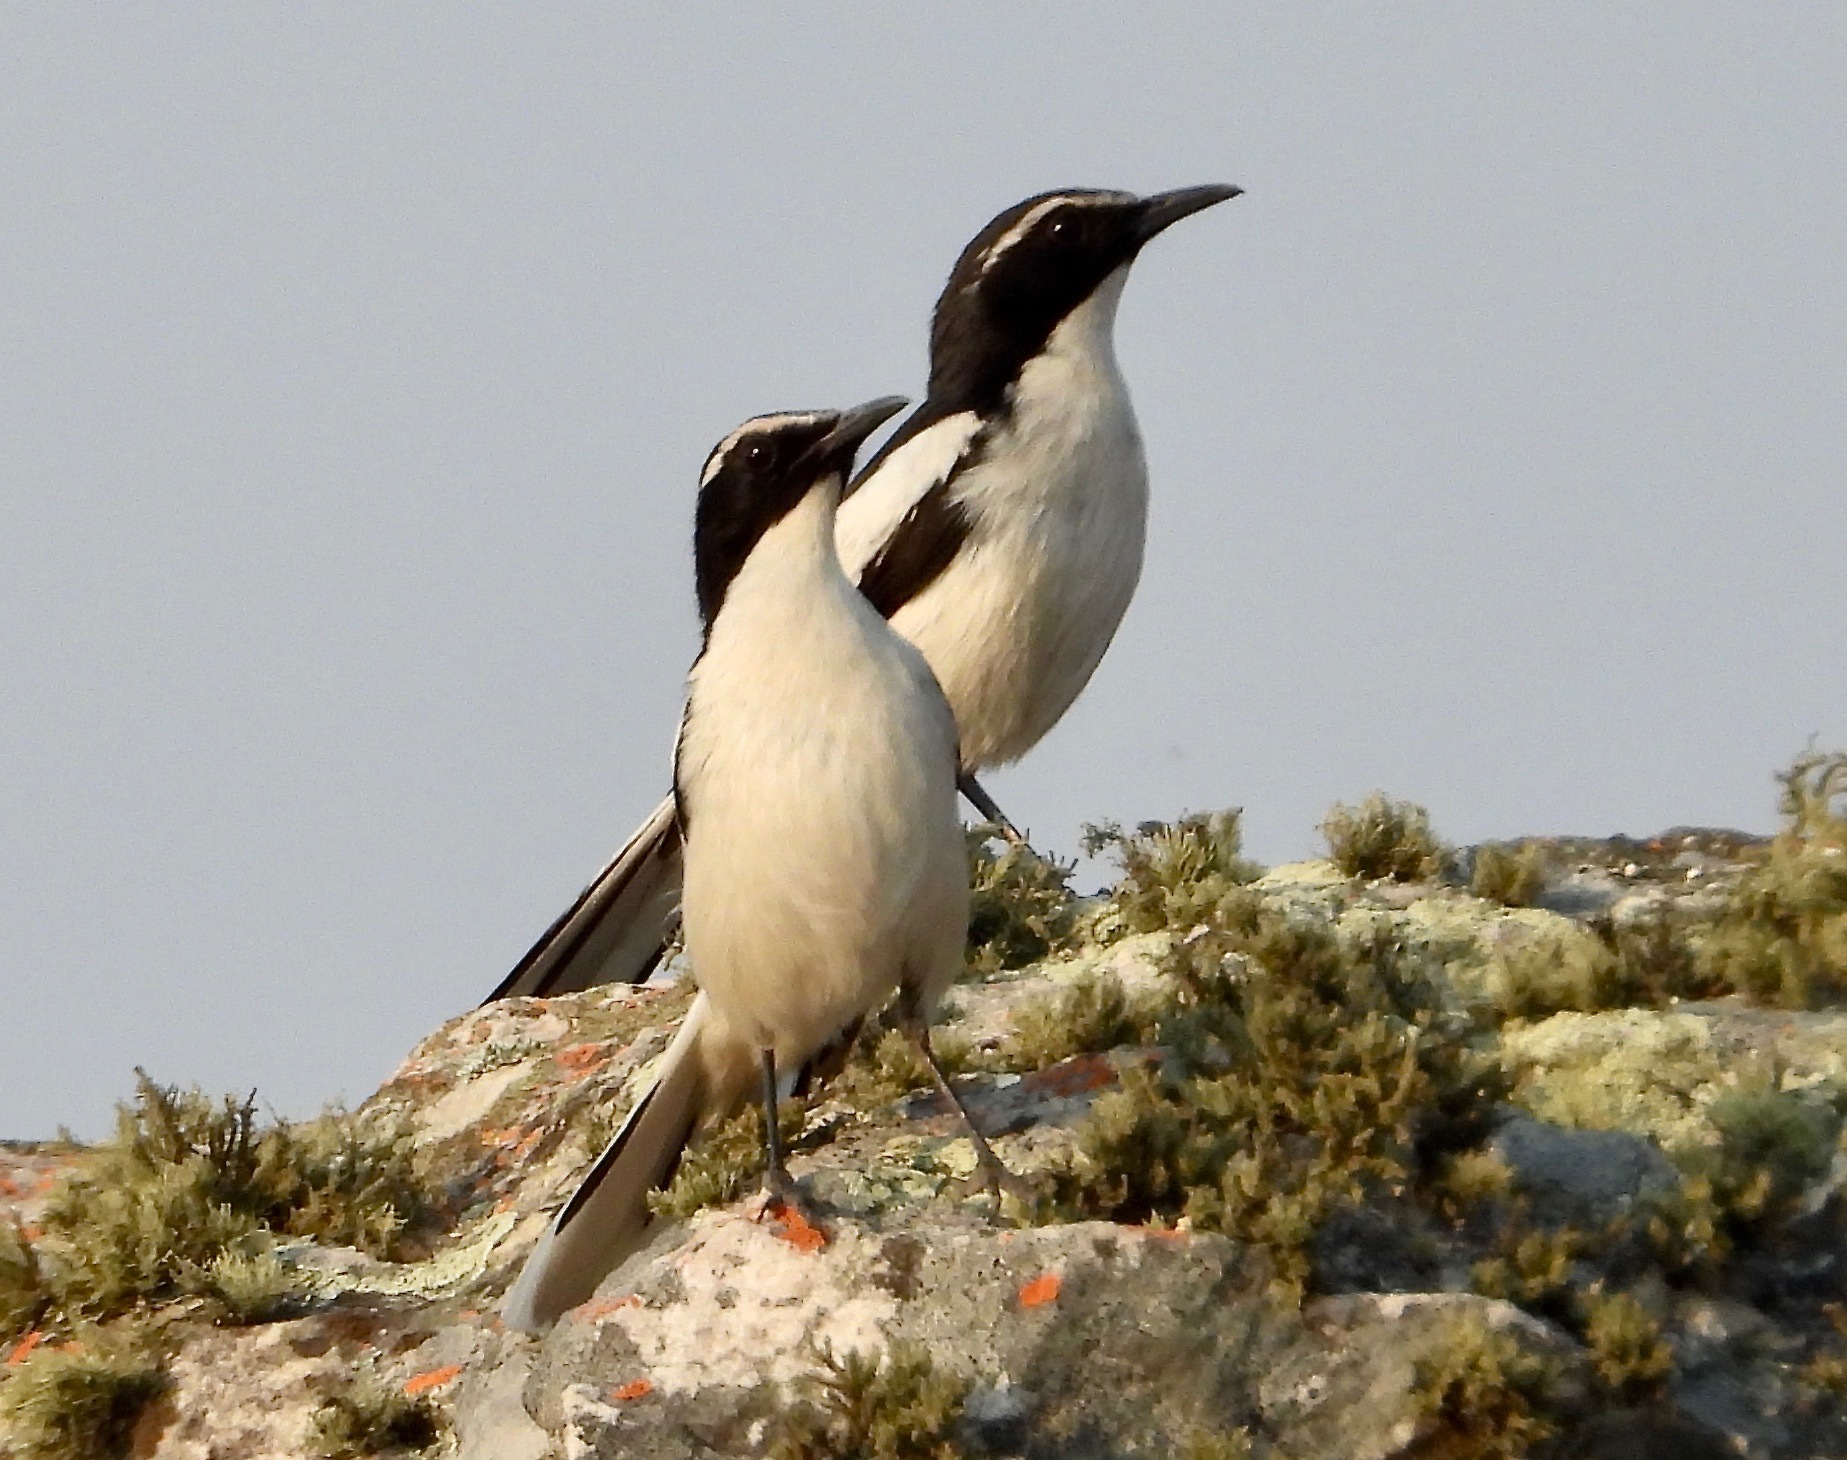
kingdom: Animalia
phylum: Chordata
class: Aves
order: Passeriformes
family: Muscicapidae
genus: Xenocopsychus
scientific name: Xenocopsychus ansorgei
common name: Angola cave chat
